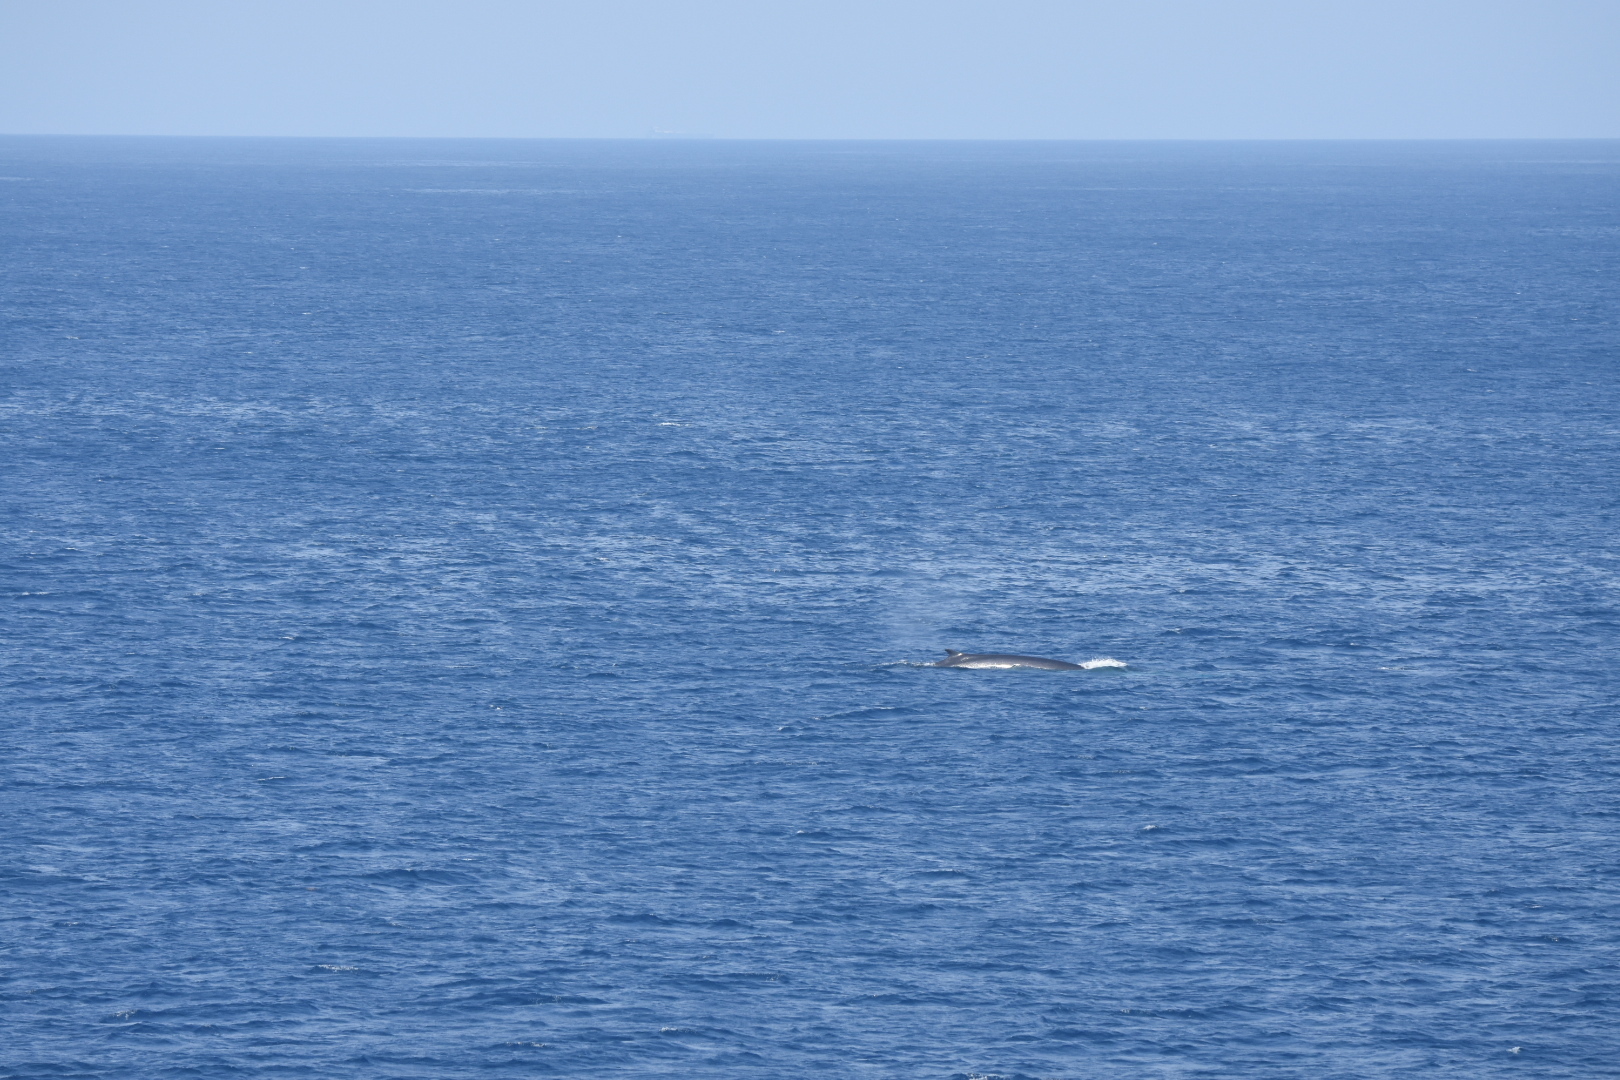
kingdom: Animalia
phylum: Chordata
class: Mammalia
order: Cetacea
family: Balaenopteridae
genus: Balaenoptera
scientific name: Balaenoptera physalus
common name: Fin whale
